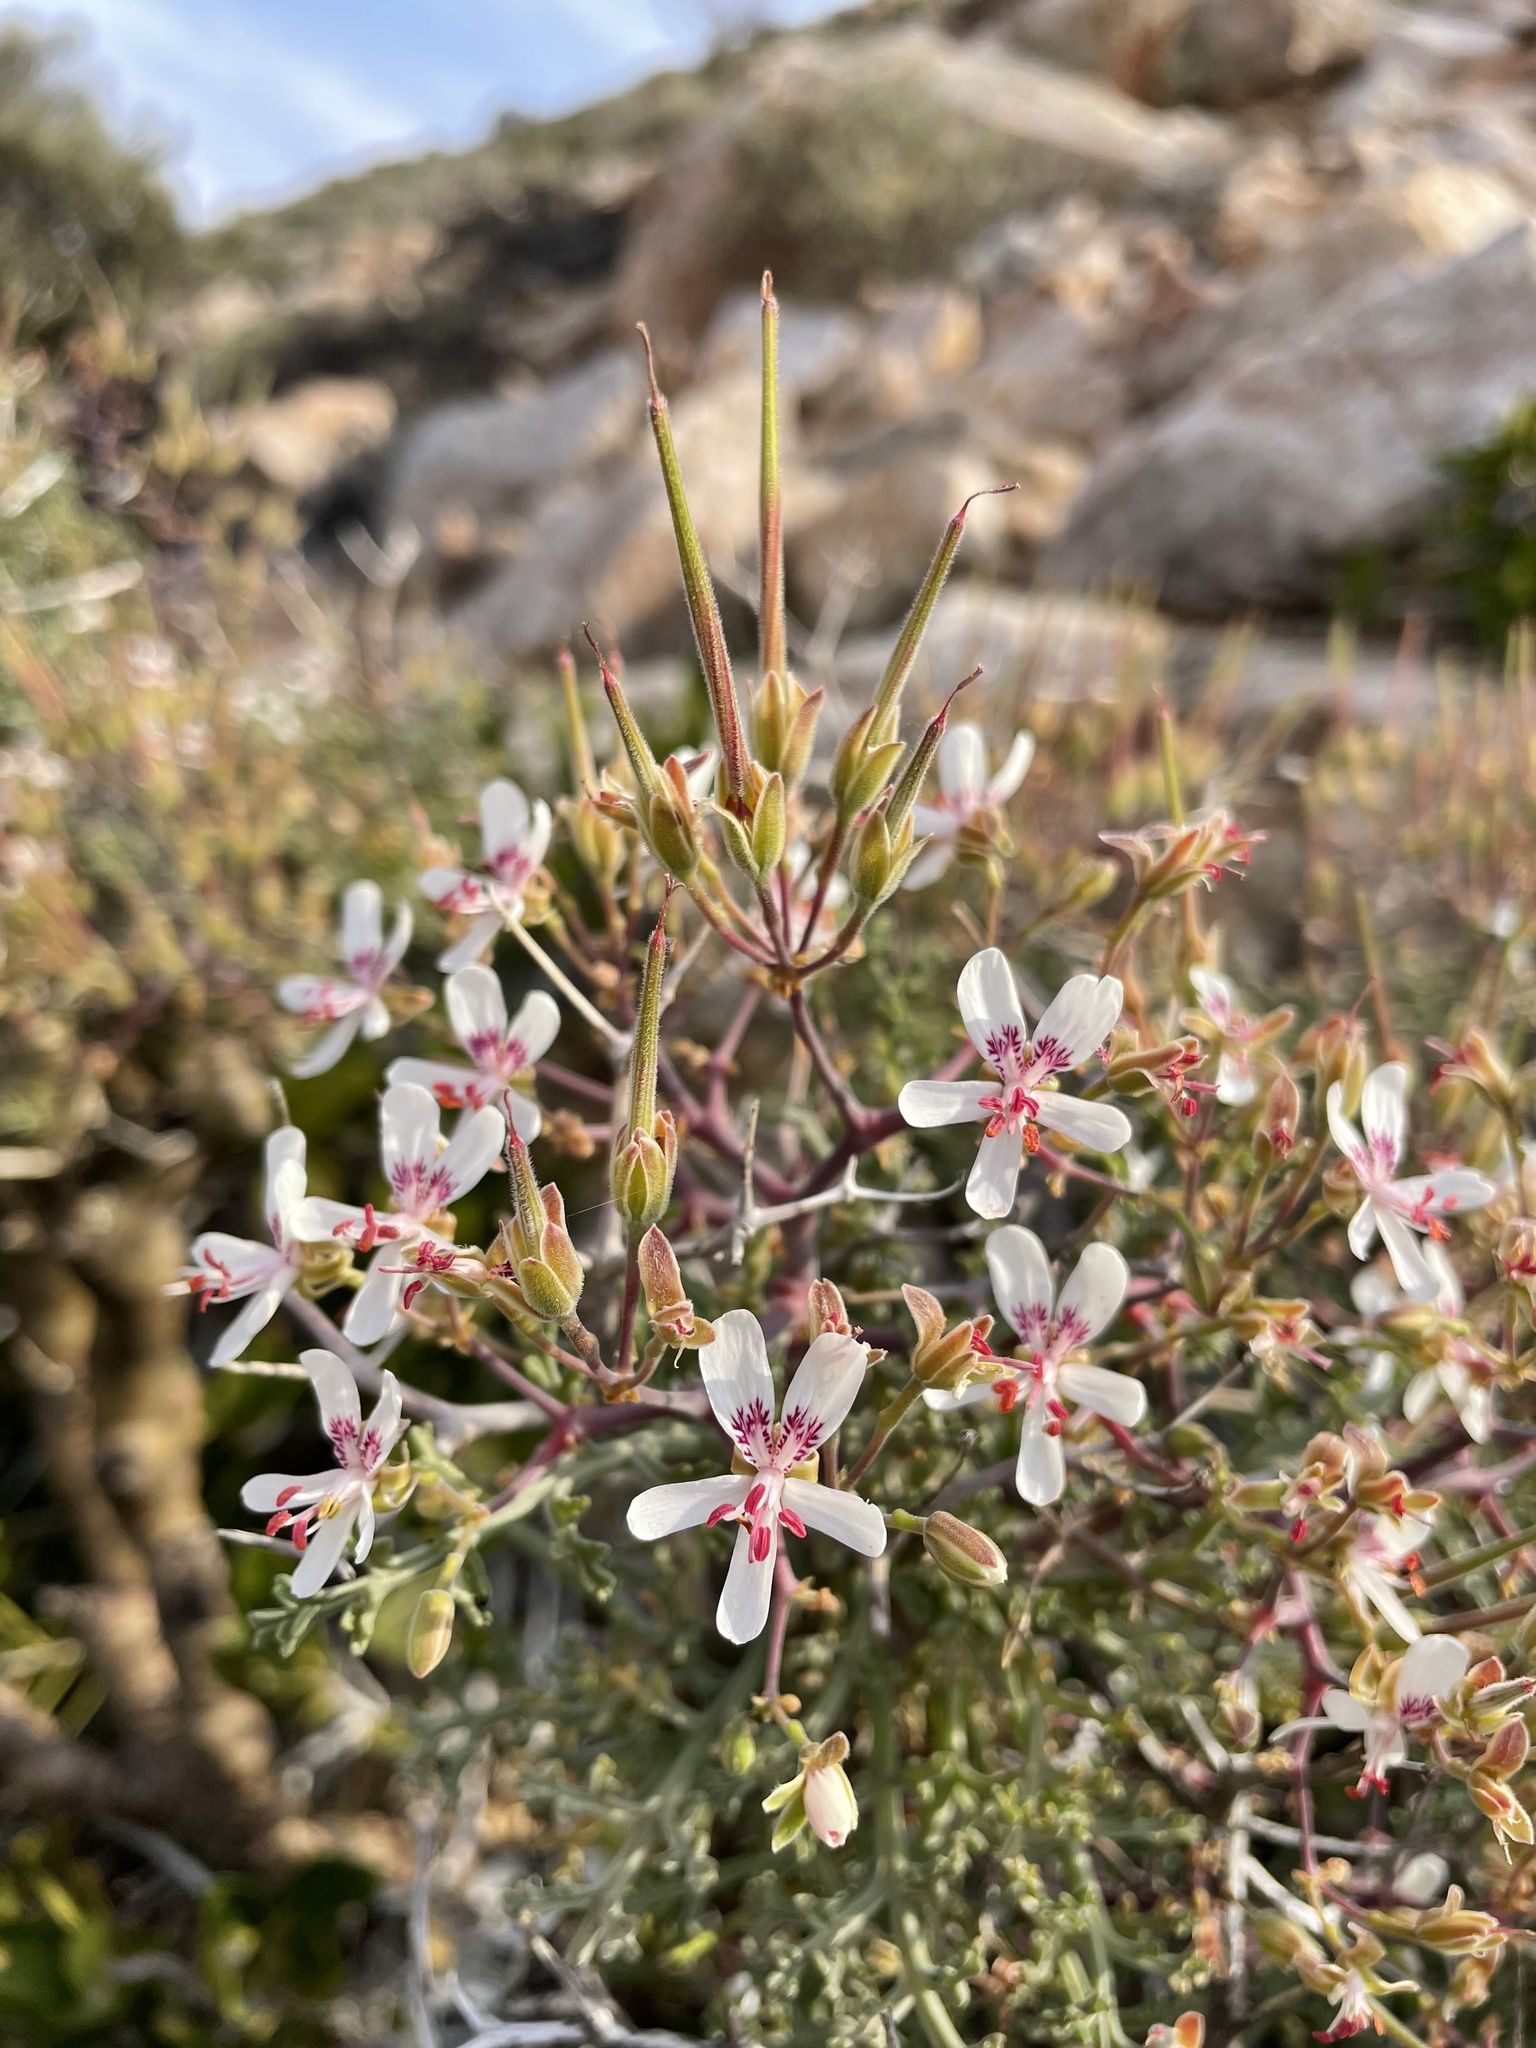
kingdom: Plantae
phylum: Tracheophyta
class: Magnoliopsida
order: Geraniales
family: Geraniaceae
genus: Pelargonium
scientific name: Pelargonium crithmifolium
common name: Samphire-leaf pelargonium
